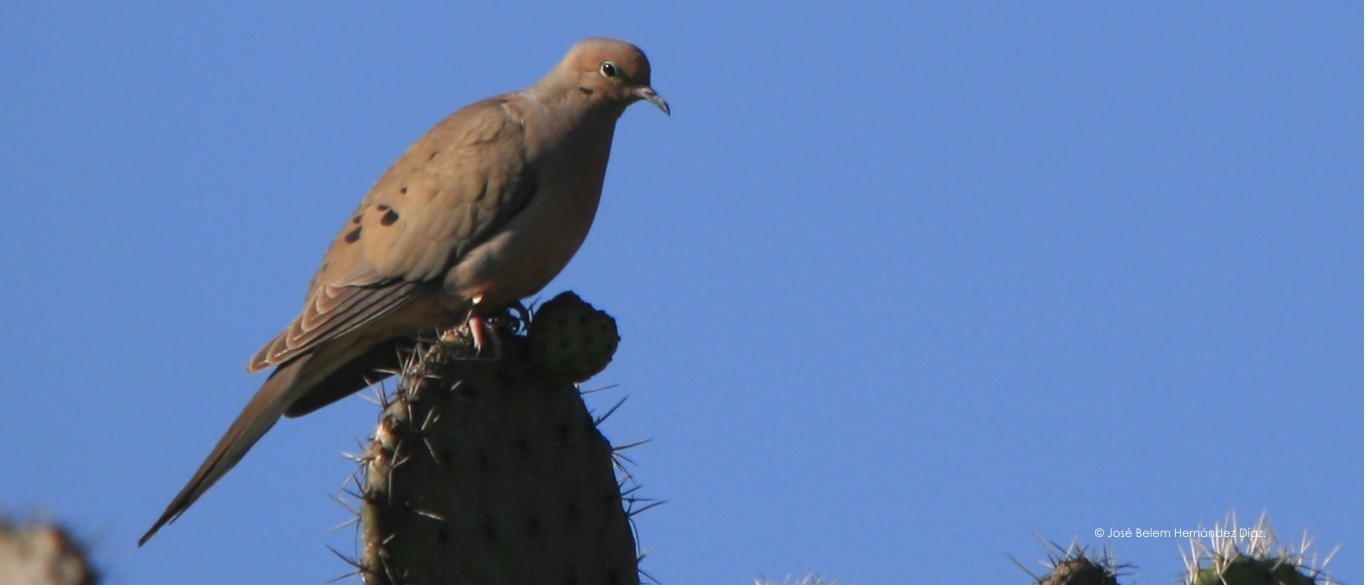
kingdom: Animalia
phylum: Chordata
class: Aves
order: Columbiformes
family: Columbidae
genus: Zenaida
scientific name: Zenaida macroura
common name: Mourning dove
